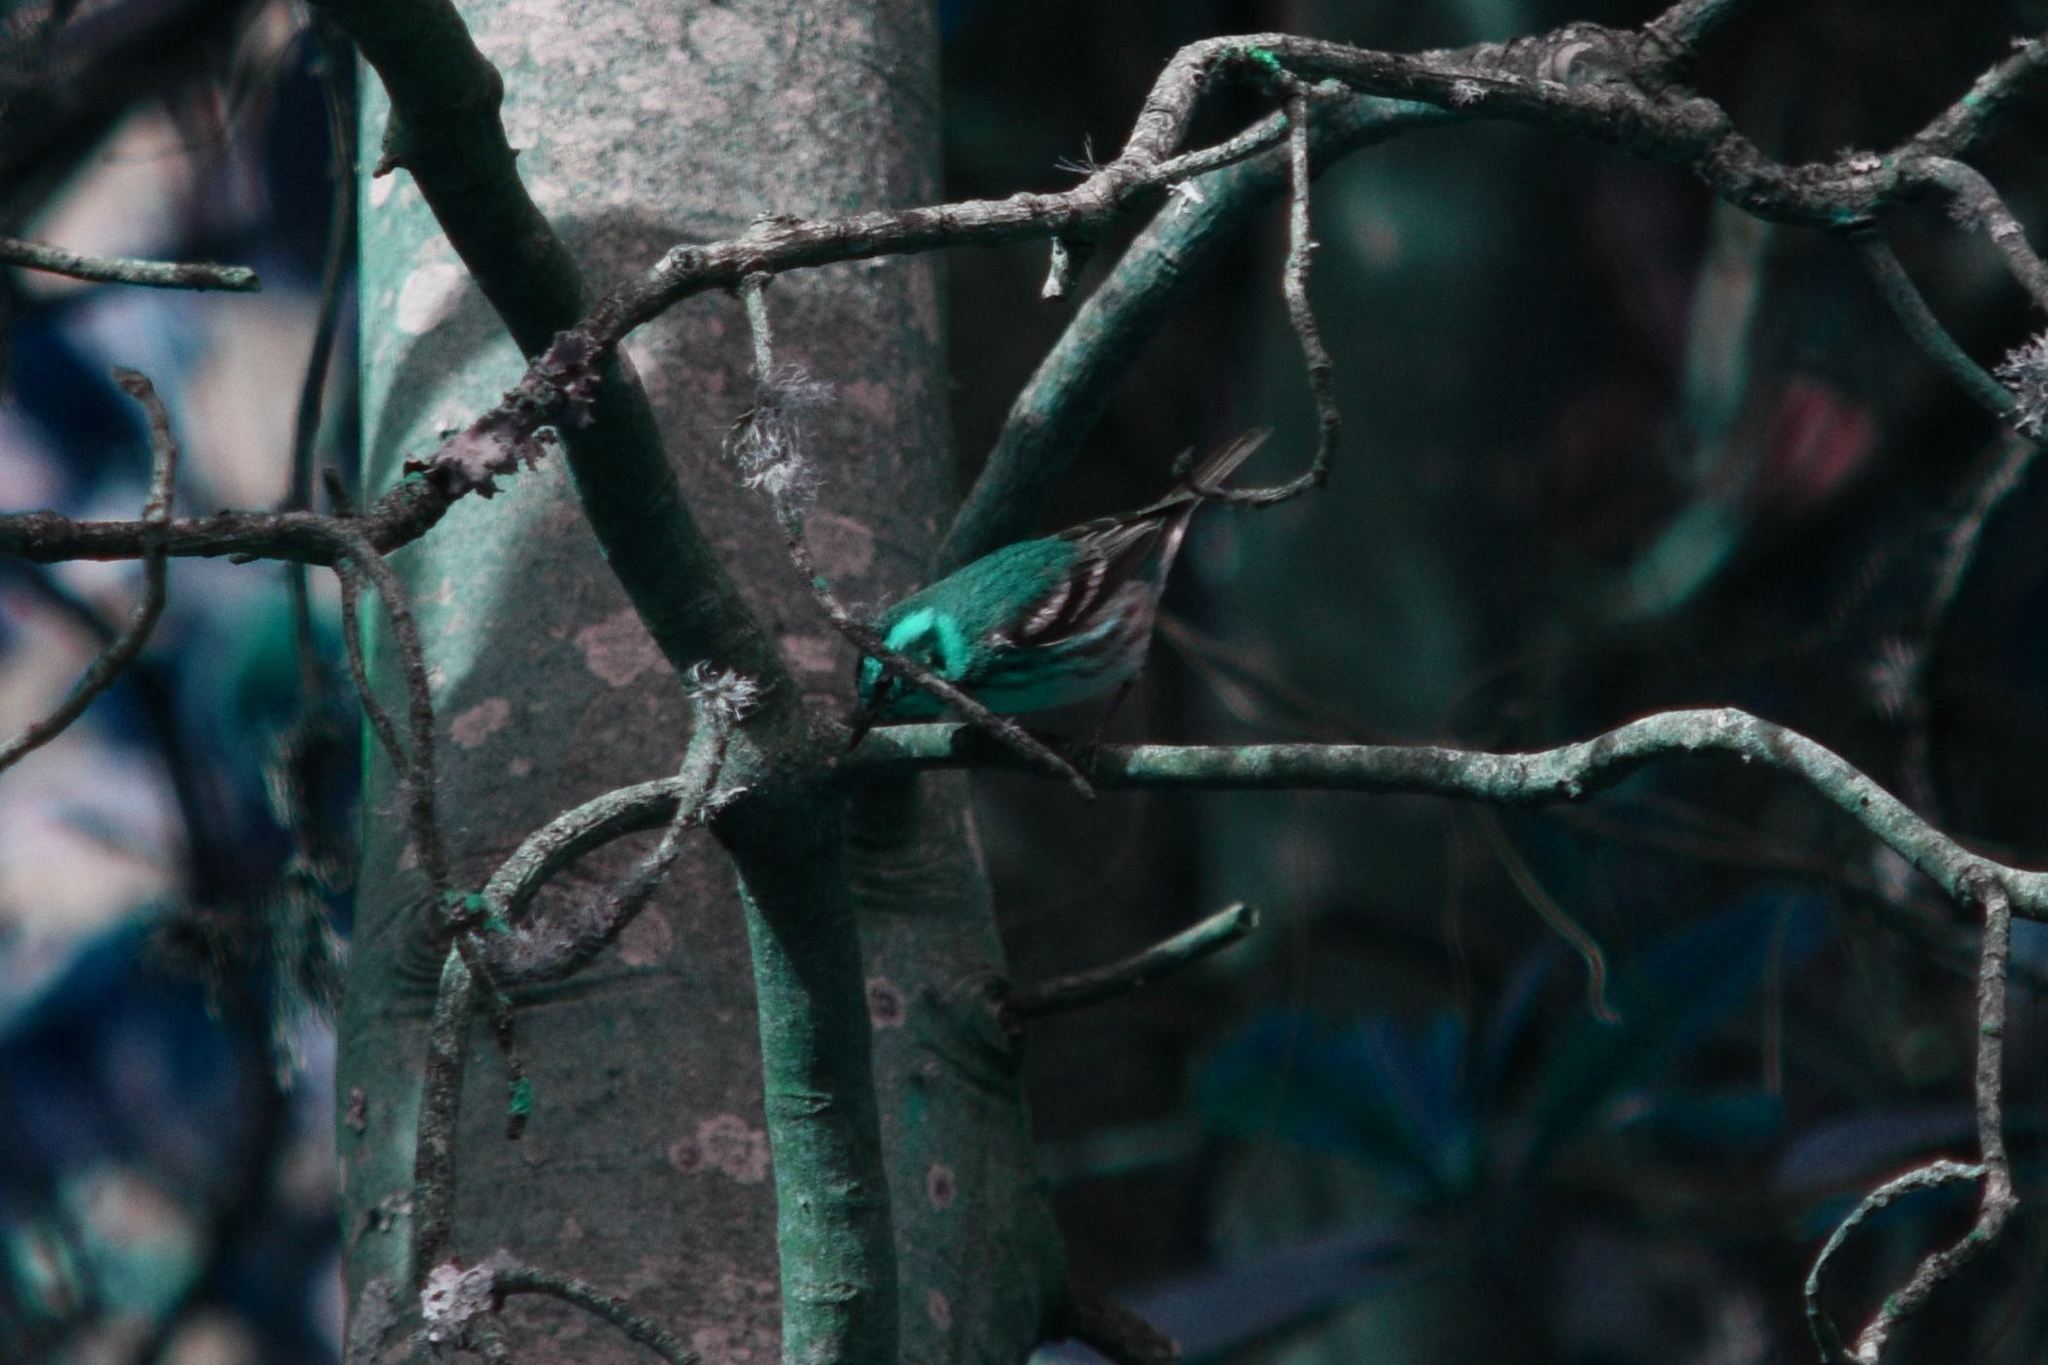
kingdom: Animalia
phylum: Chordata
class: Aves
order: Passeriformes
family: Parulidae
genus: Setophaga
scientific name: Setophaga townsendi
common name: Townsend's warbler
